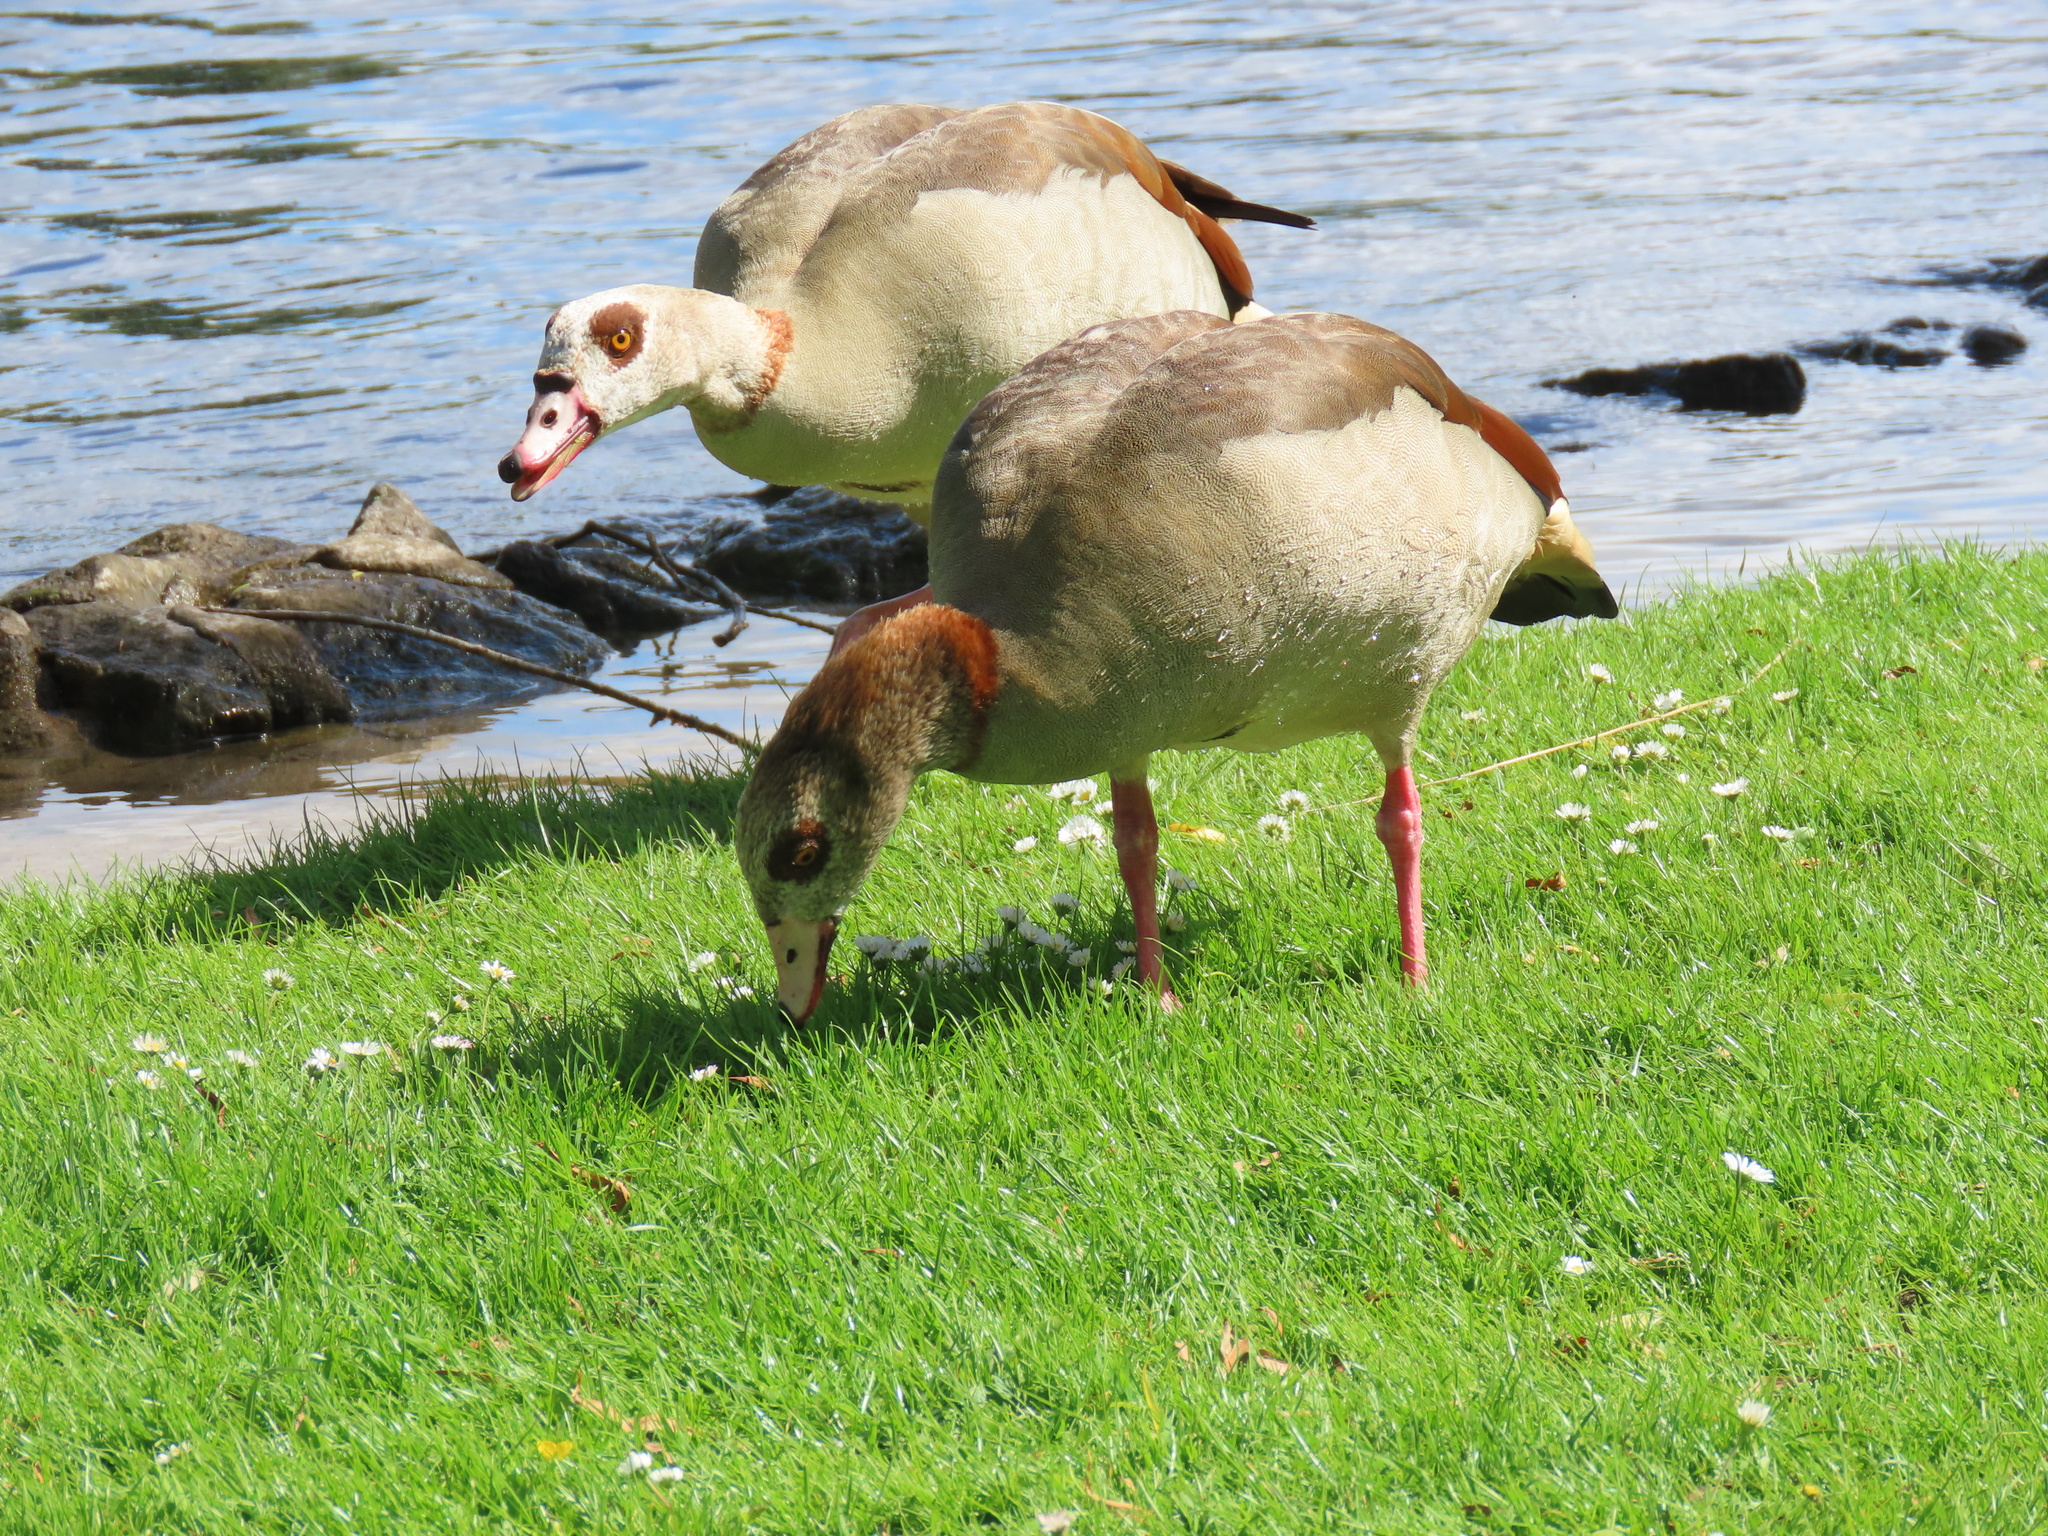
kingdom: Animalia
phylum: Chordata
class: Aves
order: Anseriformes
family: Anatidae
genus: Alopochen
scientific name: Alopochen aegyptiaca
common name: Egyptian goose
